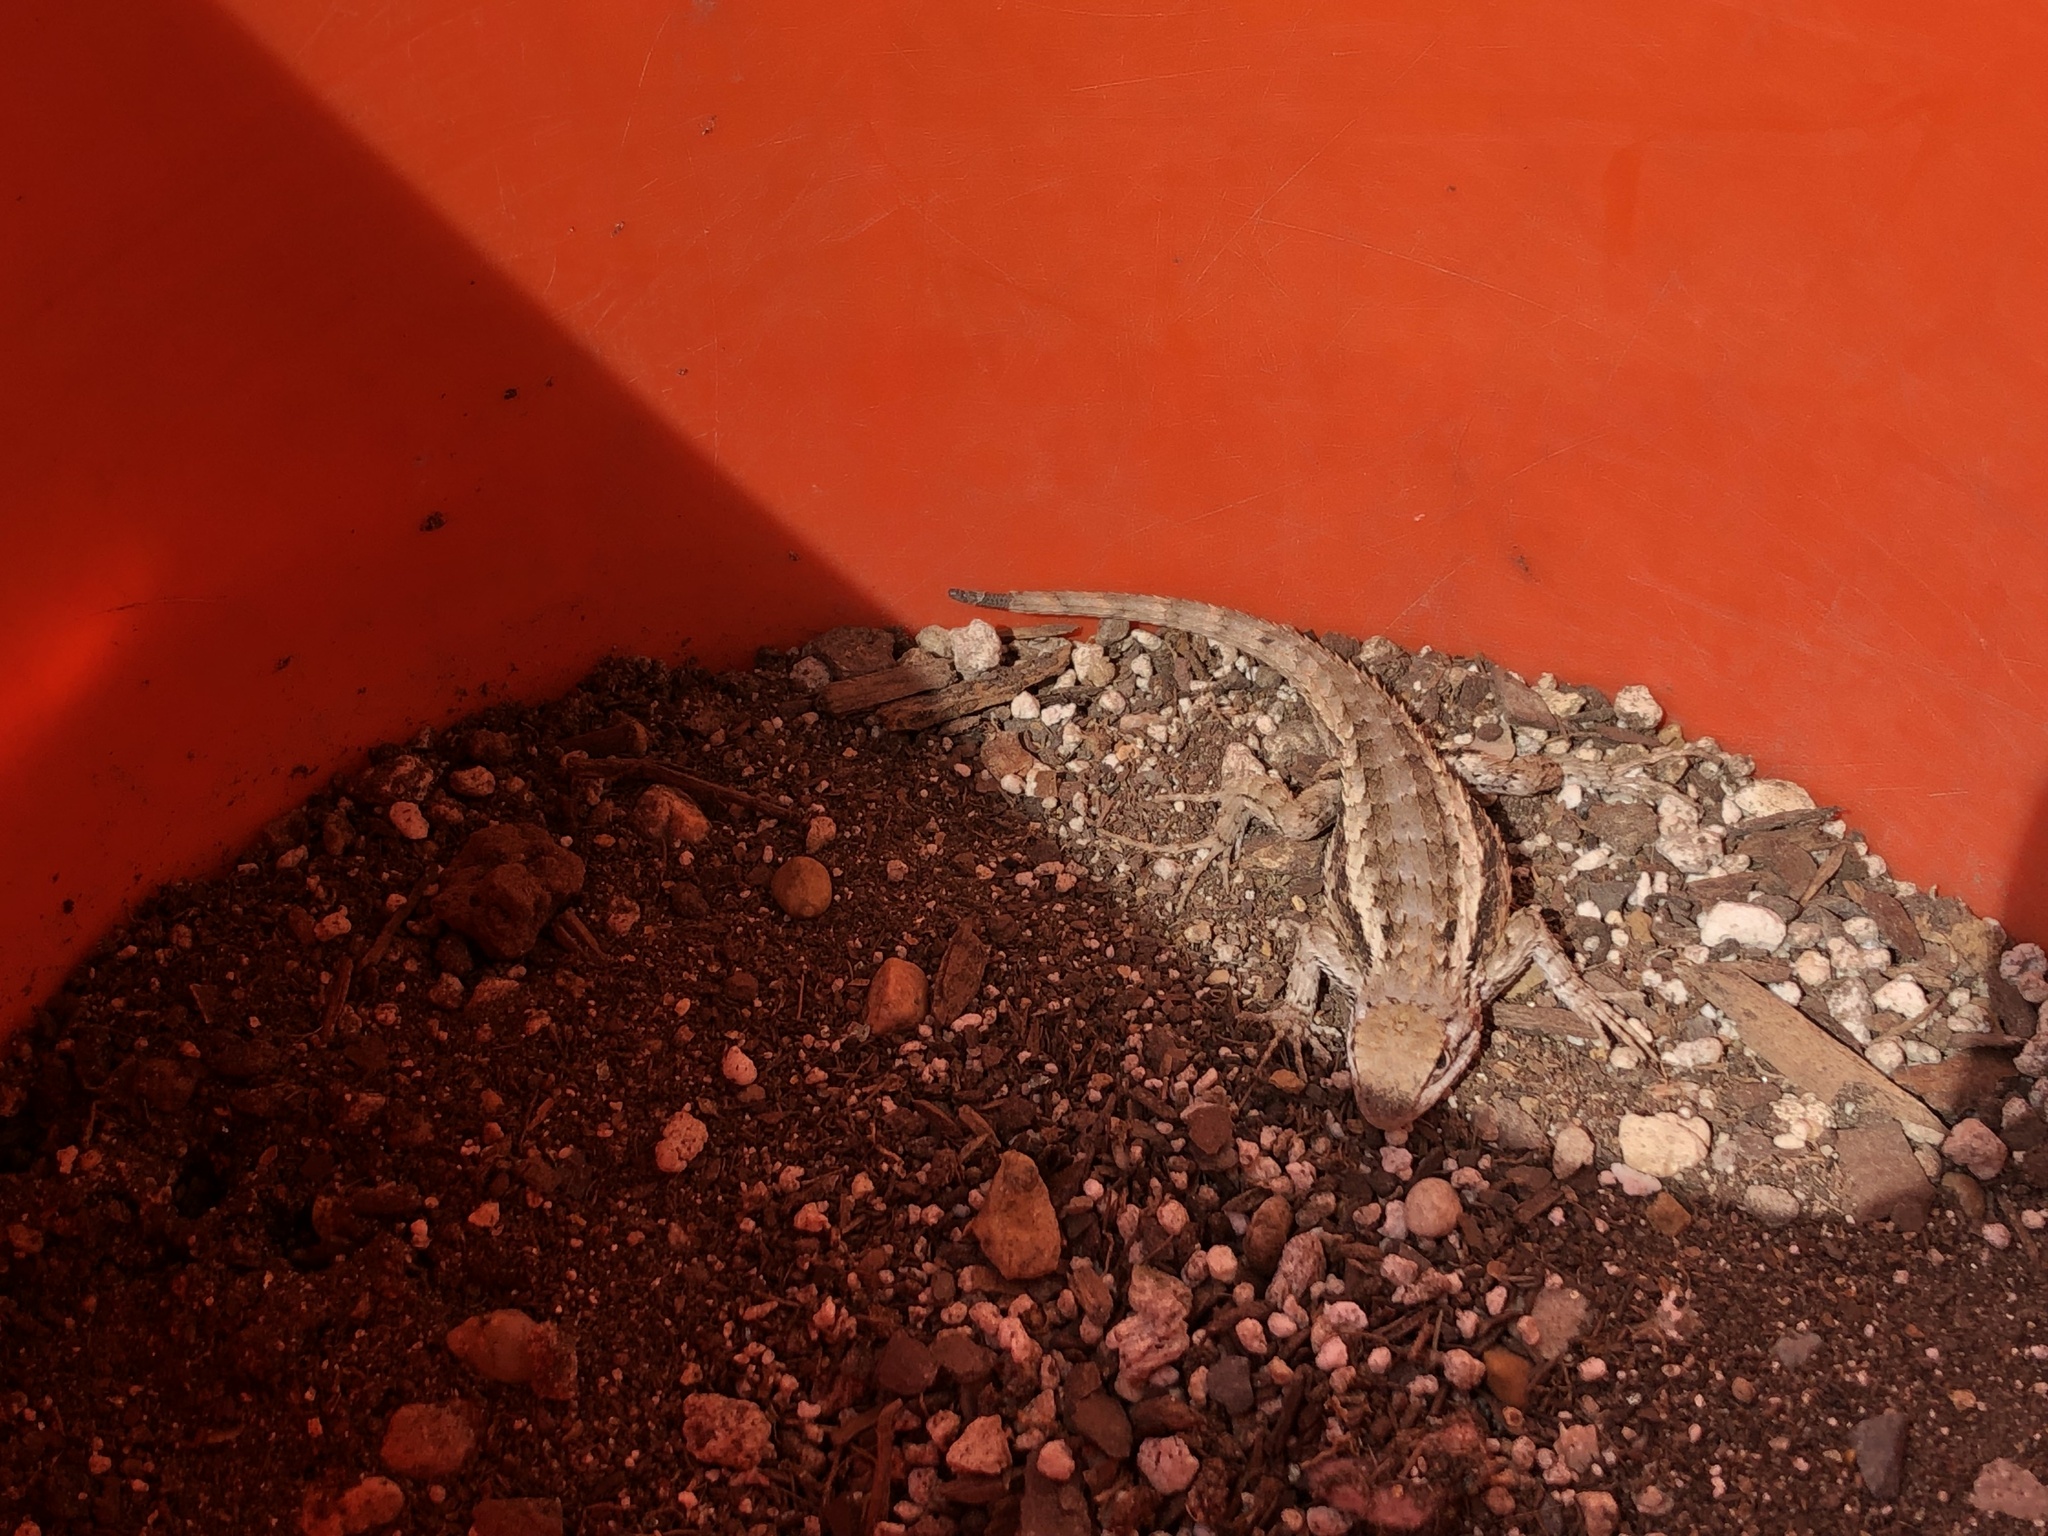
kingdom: Animalia
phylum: Chordata
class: Squamata
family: Phrynosomatidae
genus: Sceloporus
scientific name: Sceloporus olivaceus
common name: Texas spiny lizard
